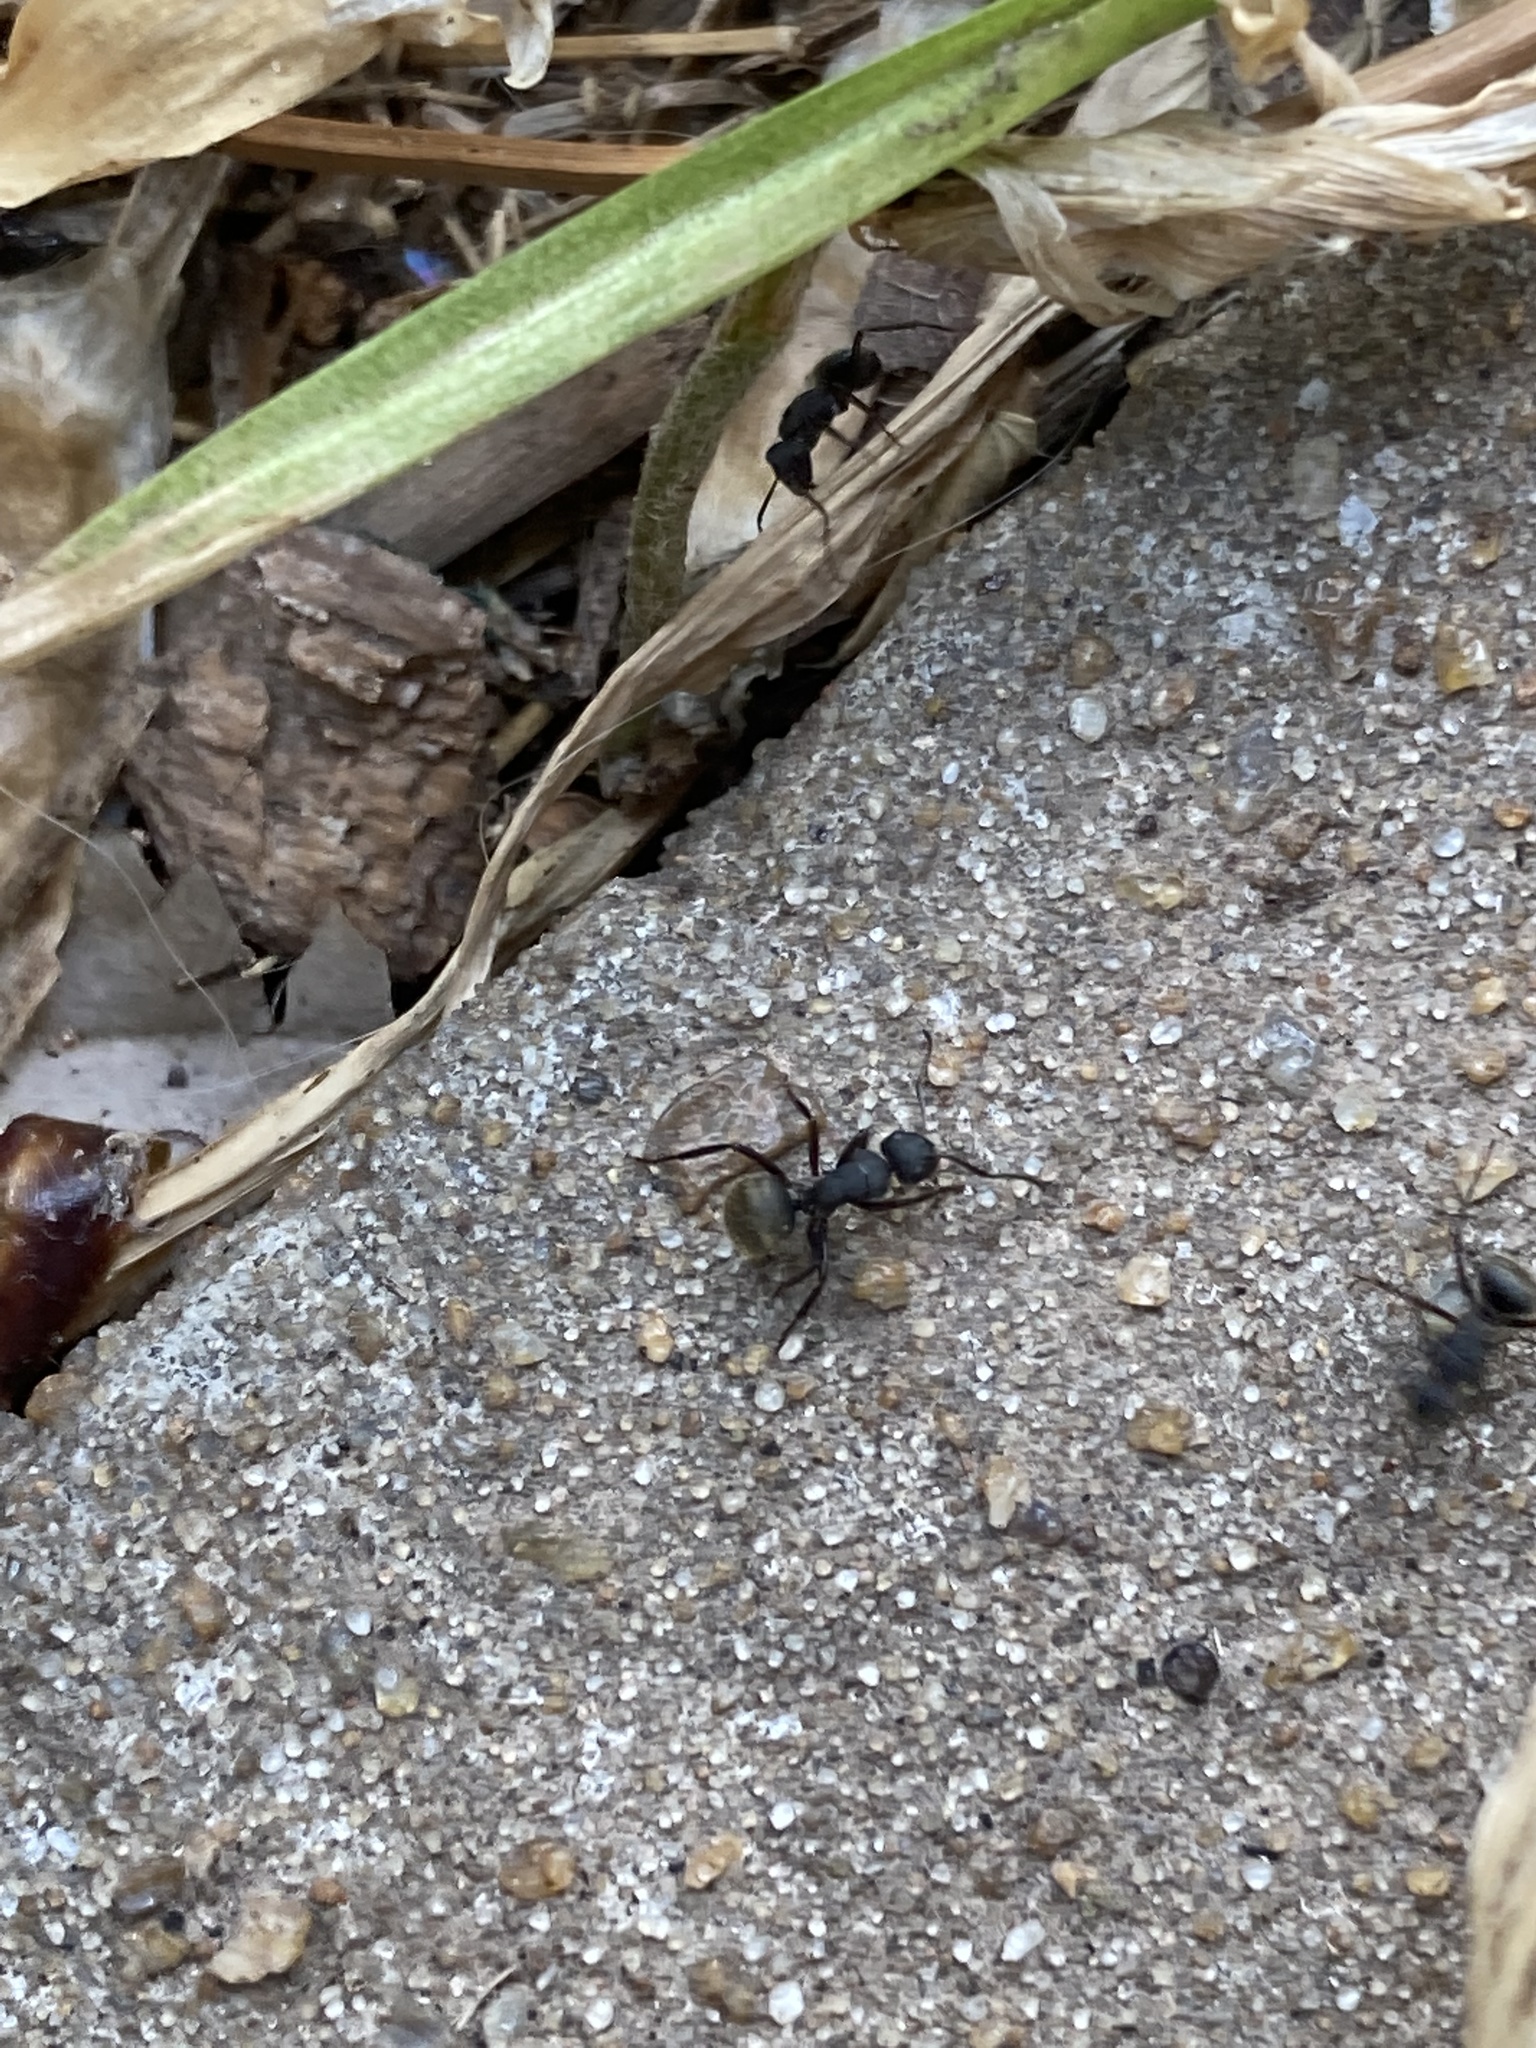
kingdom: Animalia
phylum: Arthropoda
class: Insecta
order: Hymenoptera
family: Formicidae
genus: Camponotus
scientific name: Camponotus mus
